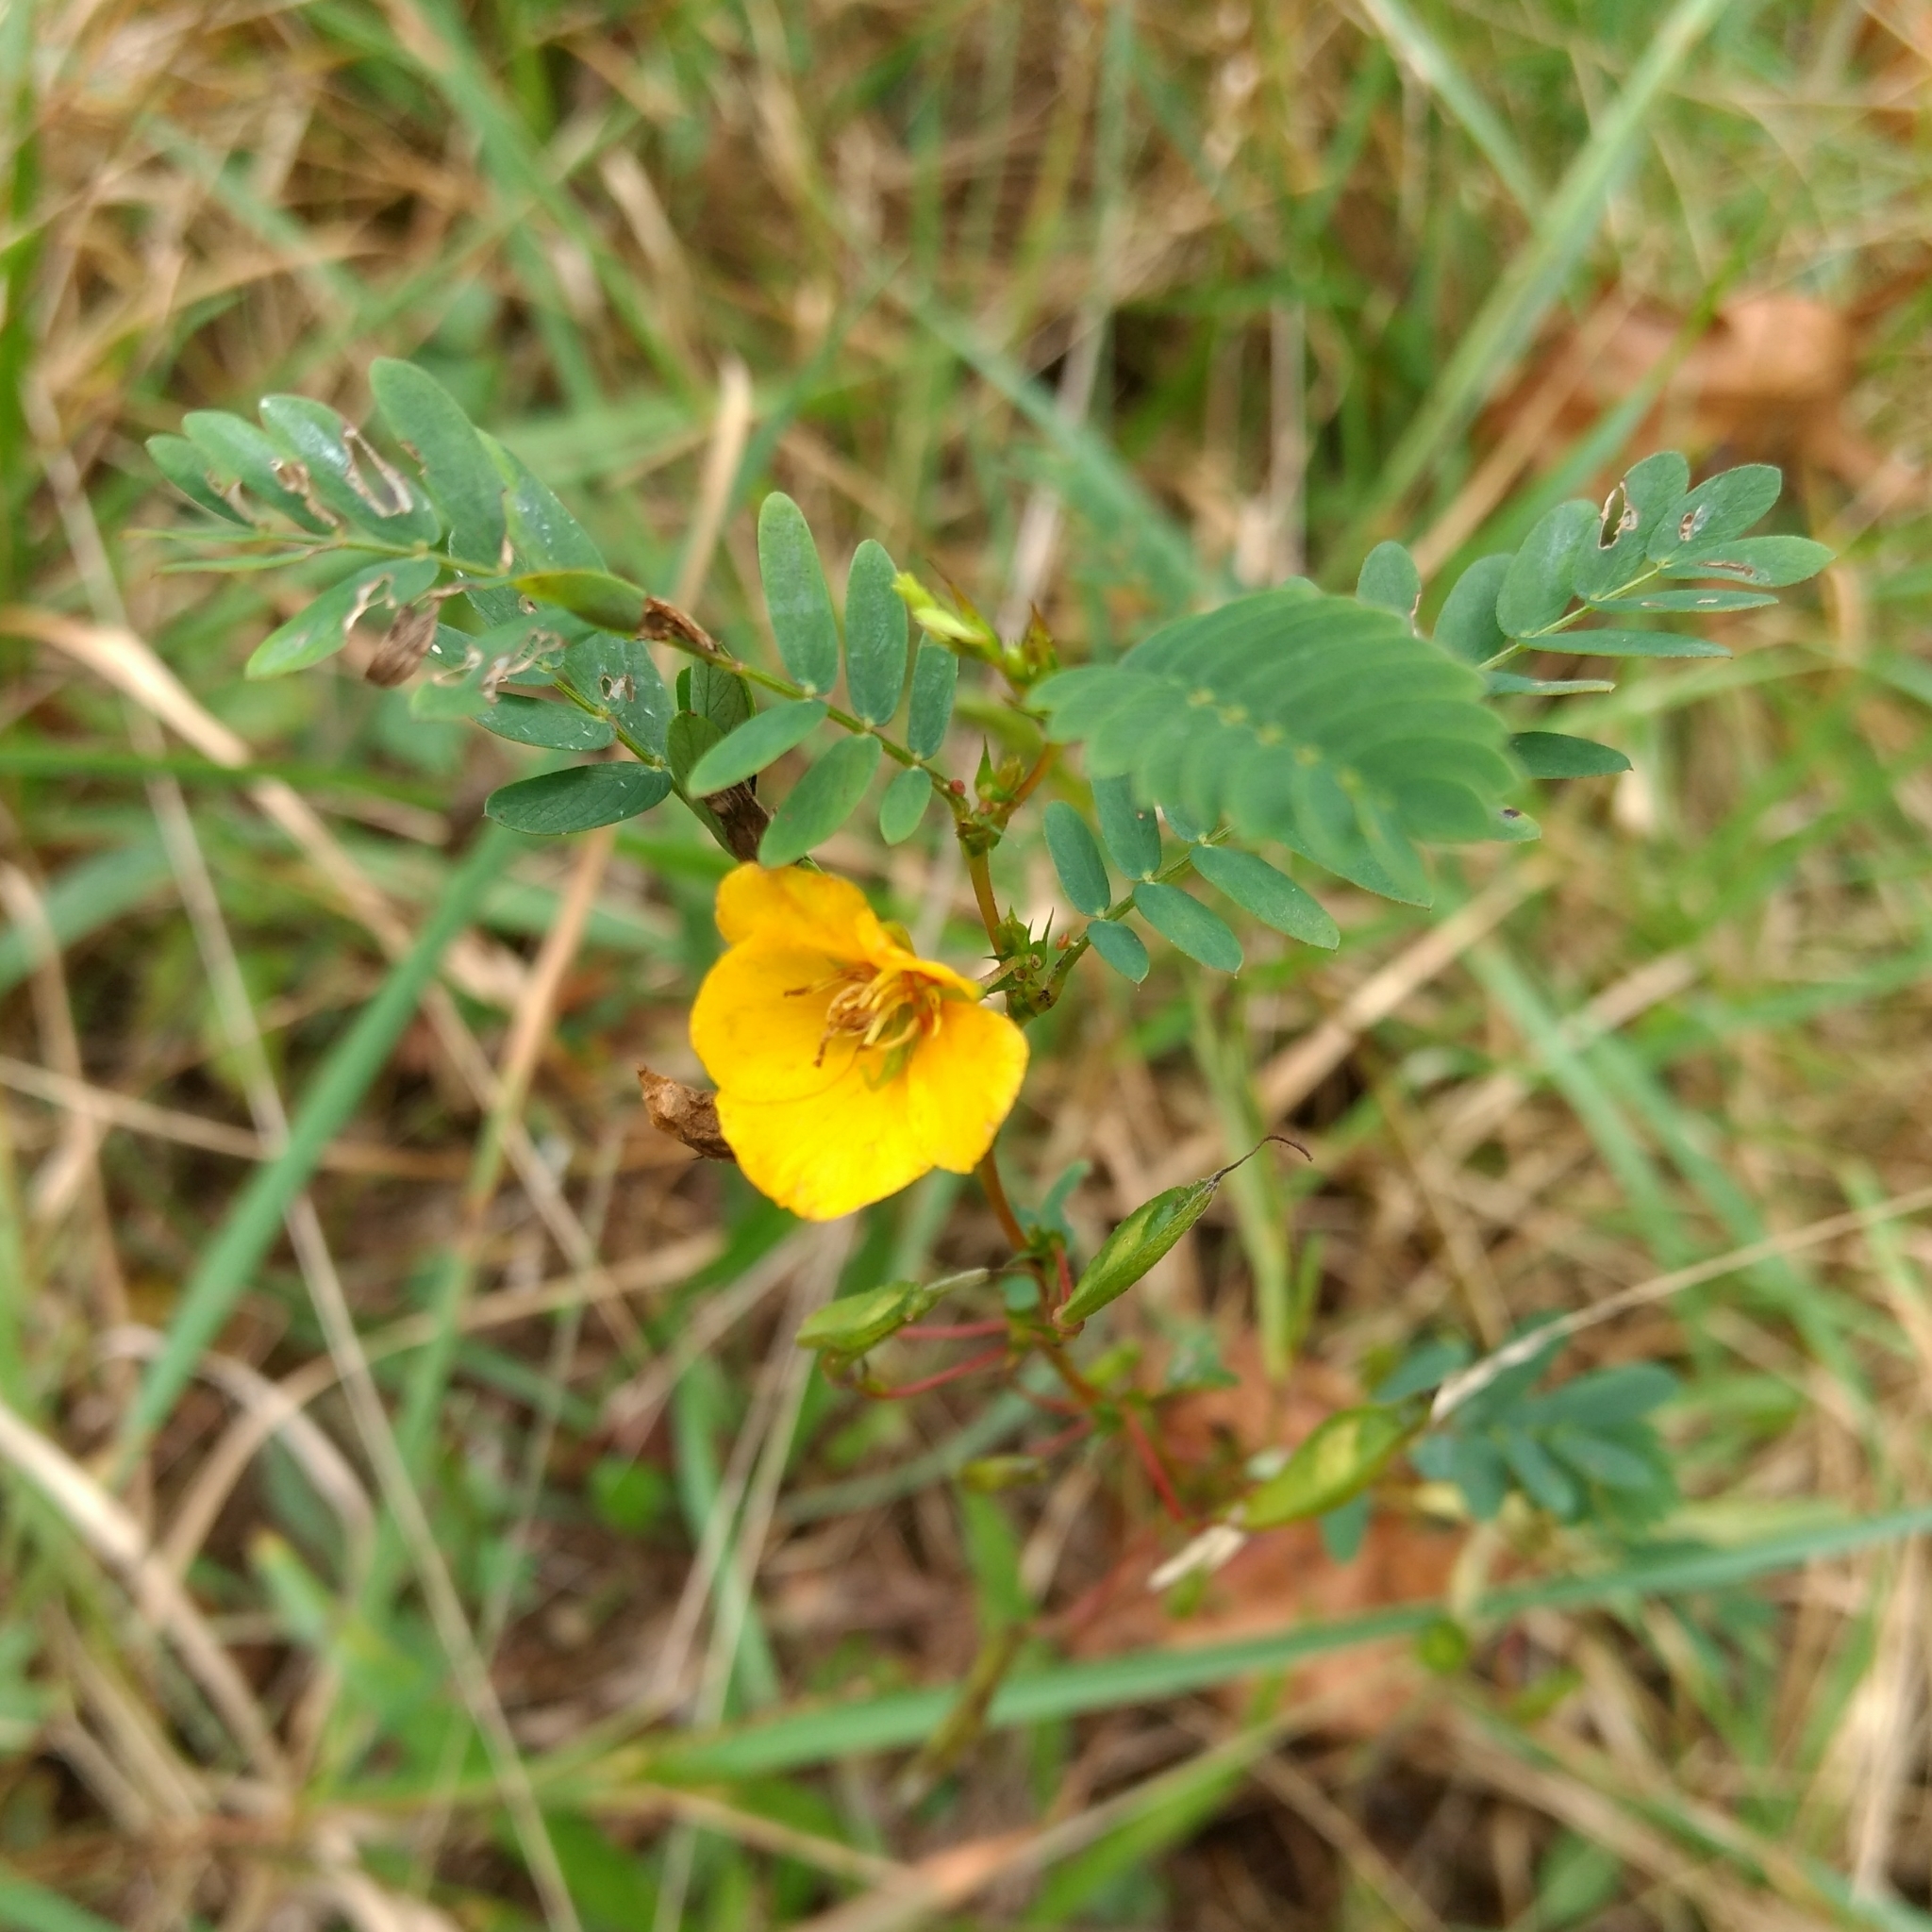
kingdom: Plantae
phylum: Tracheophyta
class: Magnoliopsida
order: Fabales
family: Fabaceae
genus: Chamaecrista
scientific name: Chamaecrista fasciculata
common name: Golden cassia
